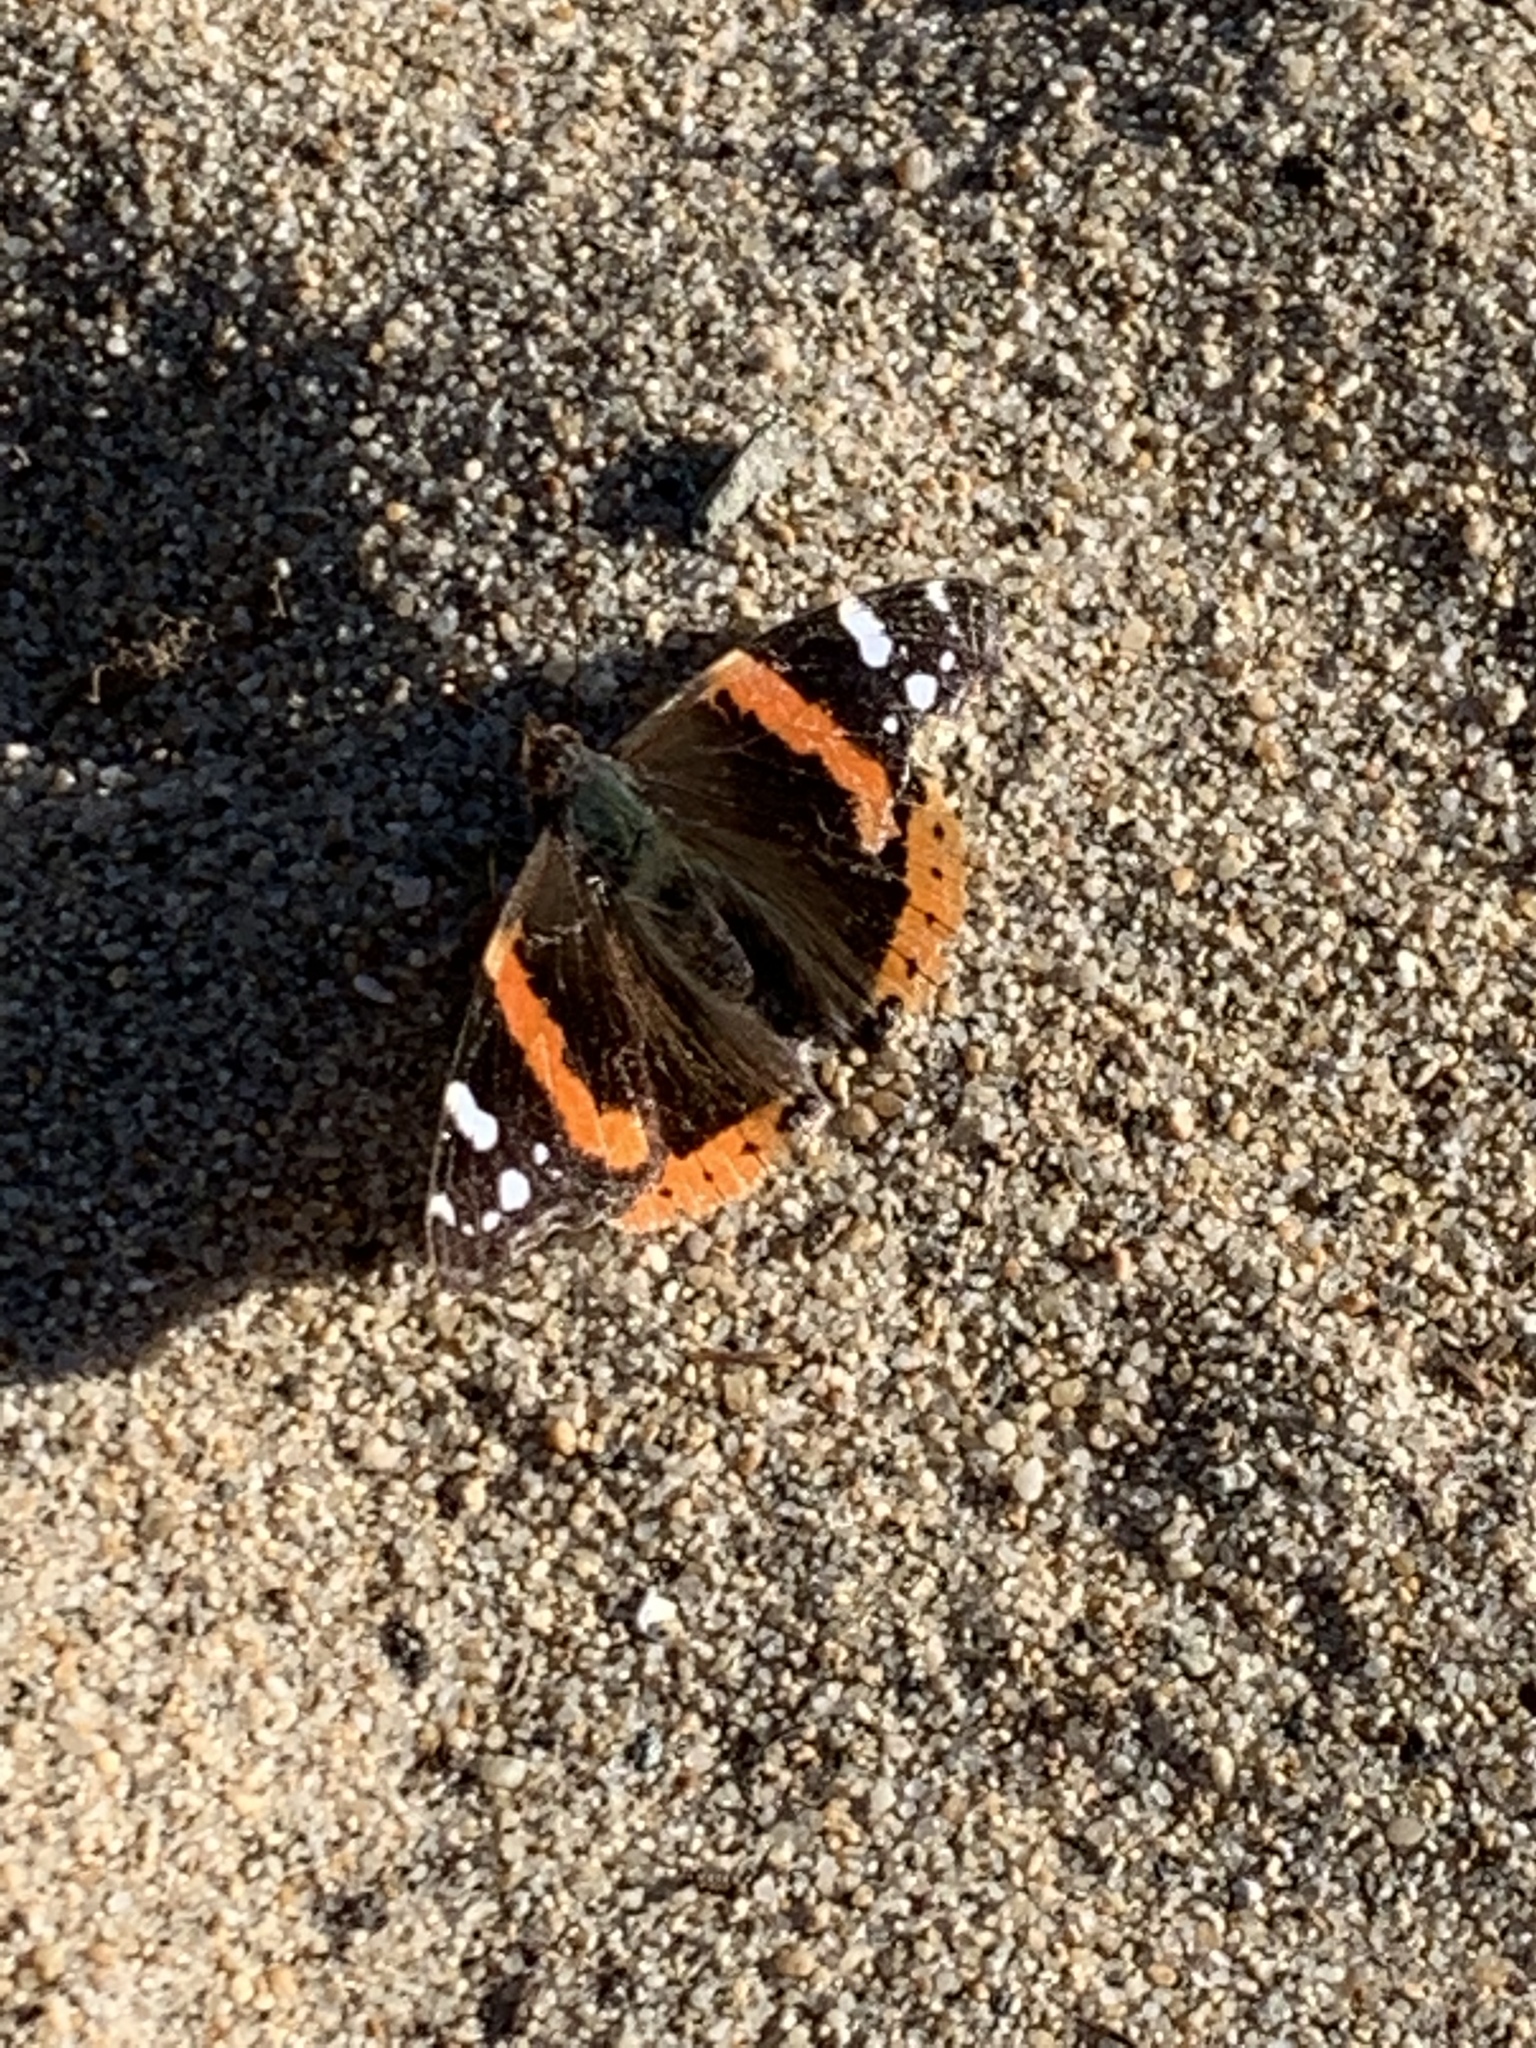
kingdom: Animalia
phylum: Arthropoda
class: Insecta
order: Lepidoptera
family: Nymphalidae
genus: Vanessa
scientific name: Vanessa atalanta
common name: Red admiral
